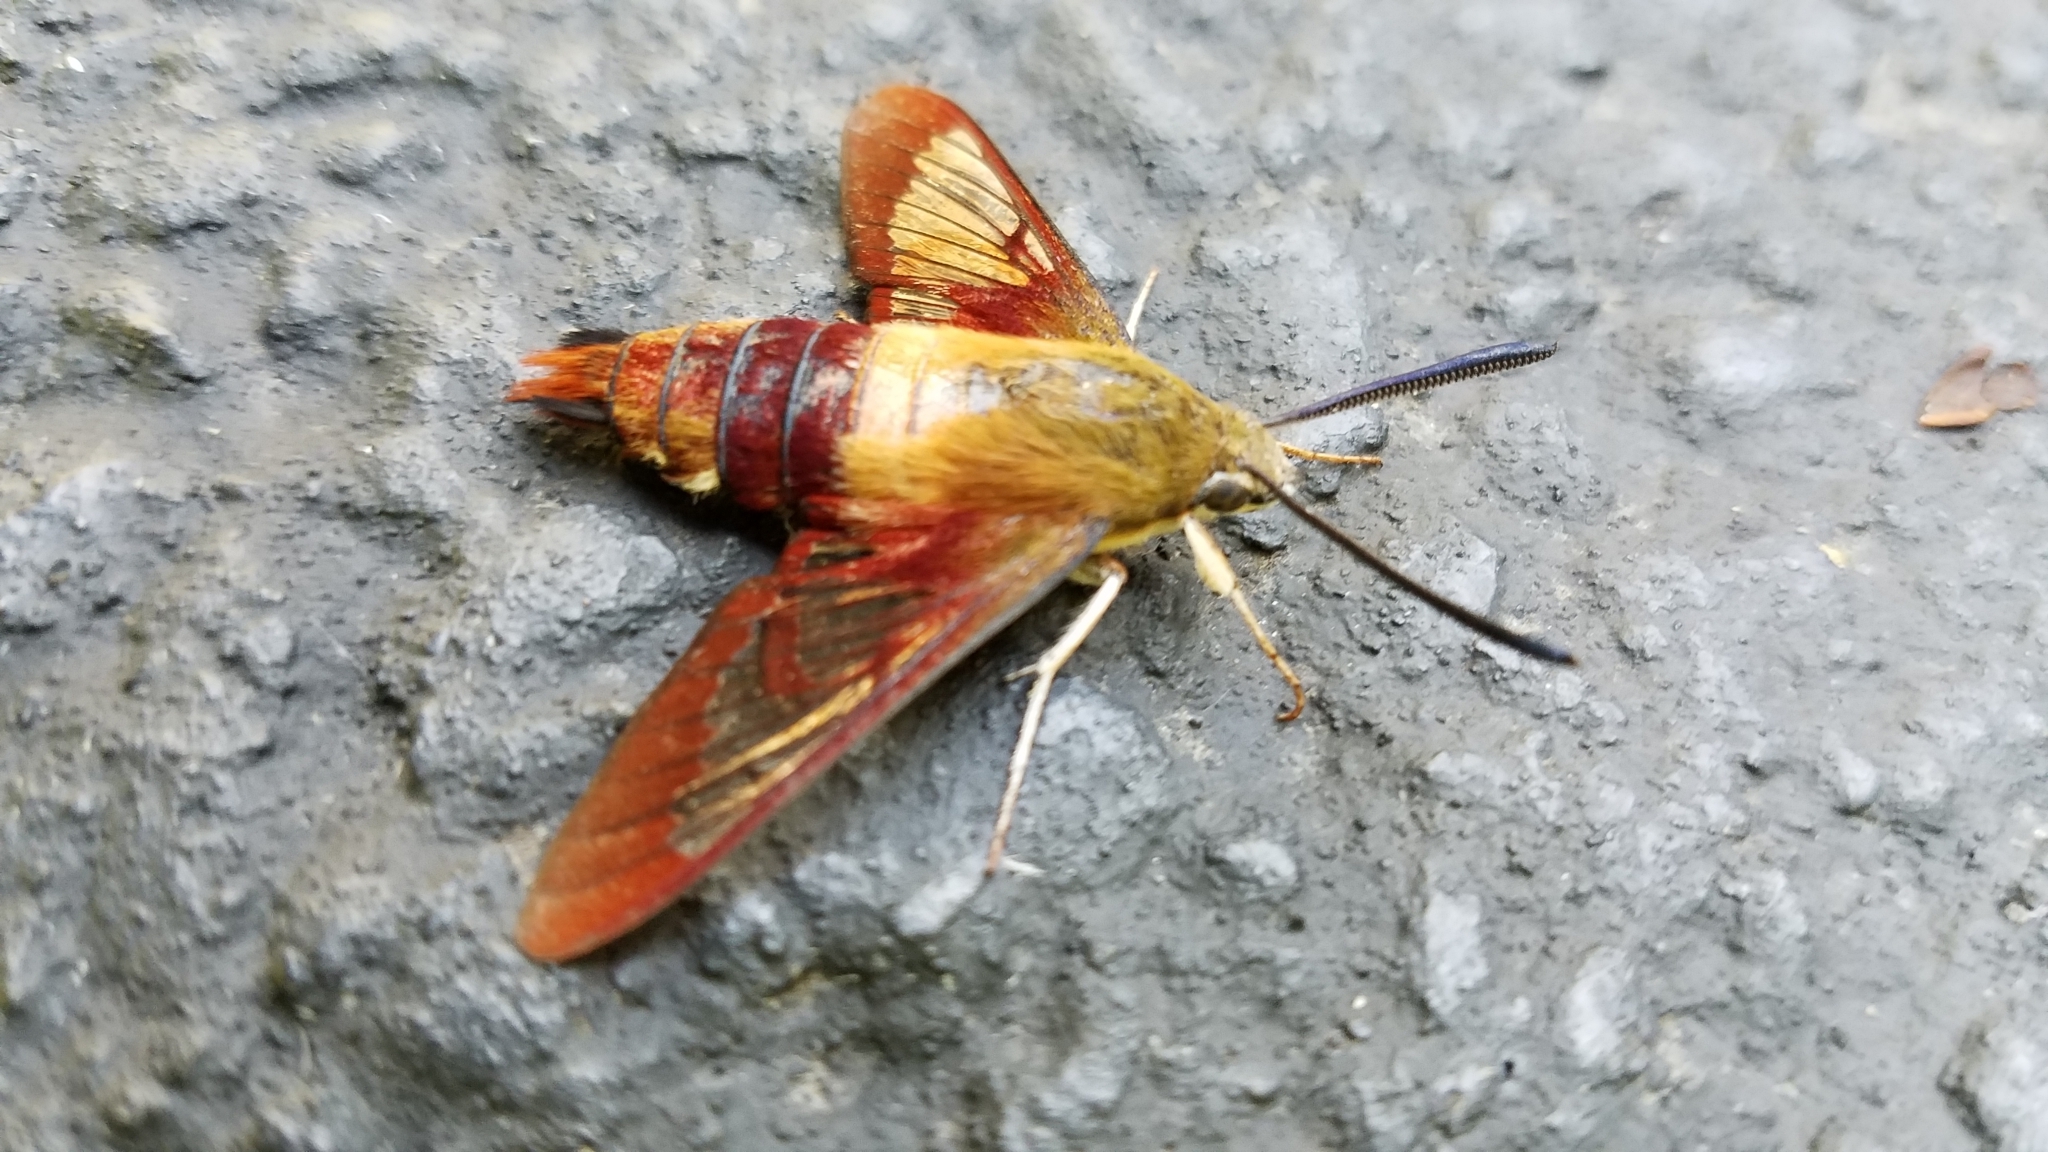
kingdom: Animalia
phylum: Arthropoda
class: Insecta
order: Lepidoptera
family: Sphingidae
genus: Hemaris
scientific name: Hemaris thysbe
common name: Common clear-wing
